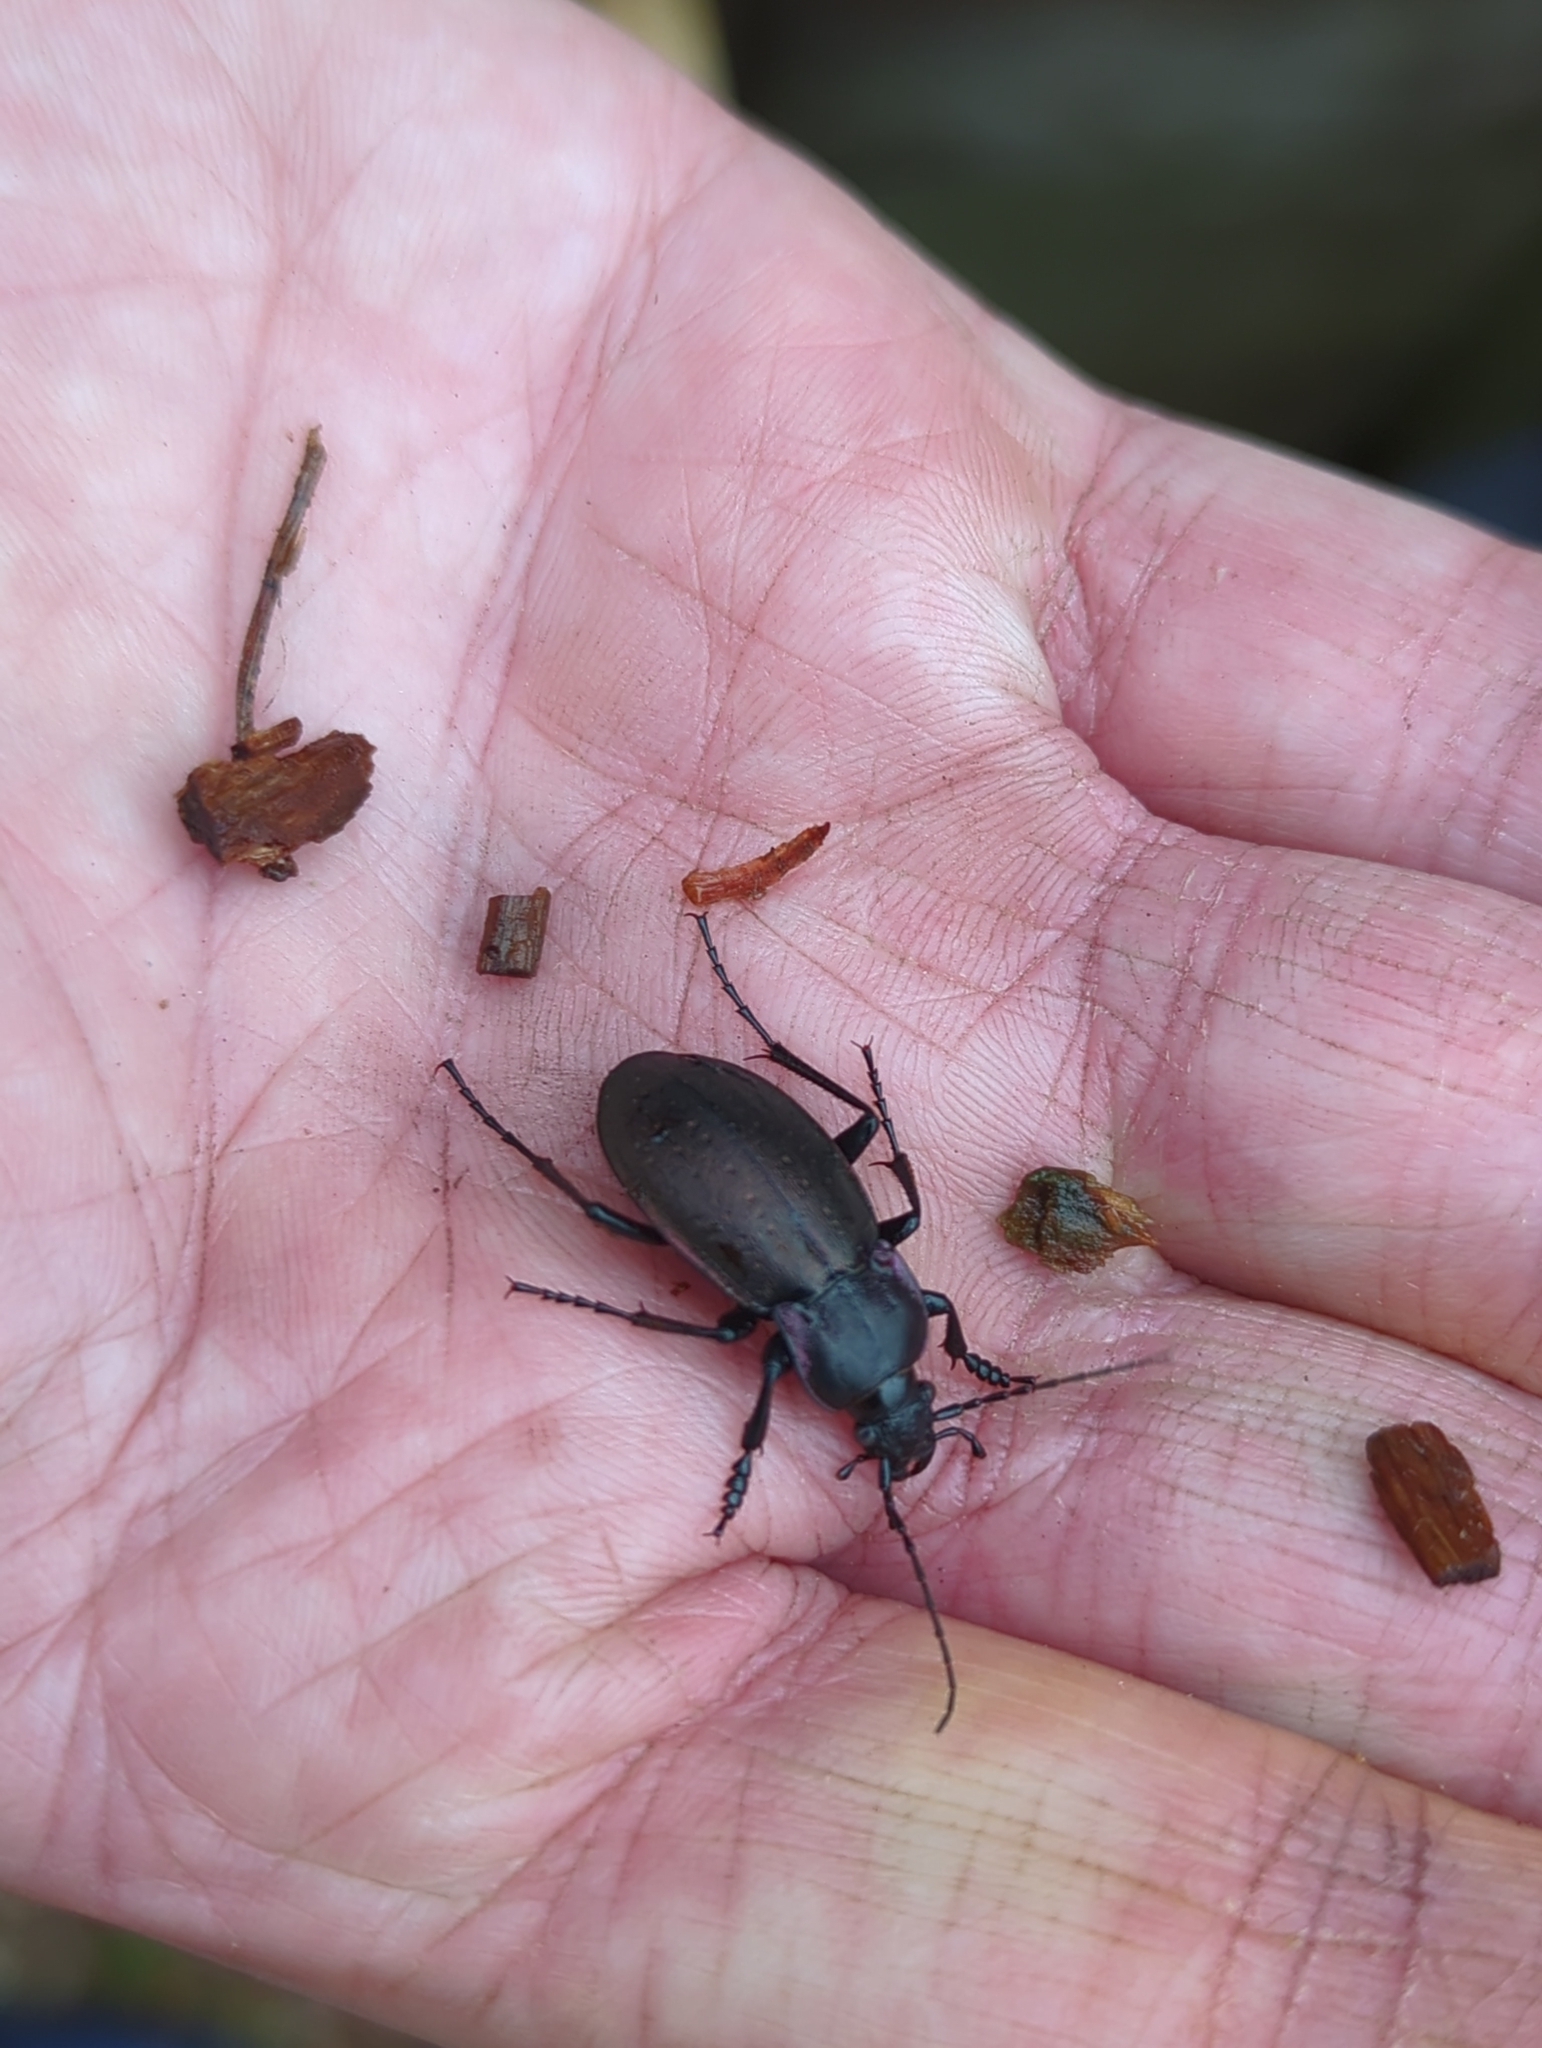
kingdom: Animalia
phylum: Arthropoda
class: Insecta
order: Coleoptera
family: Carabidae
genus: Carabus
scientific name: Carabus nemoralis
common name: European ground beetle
